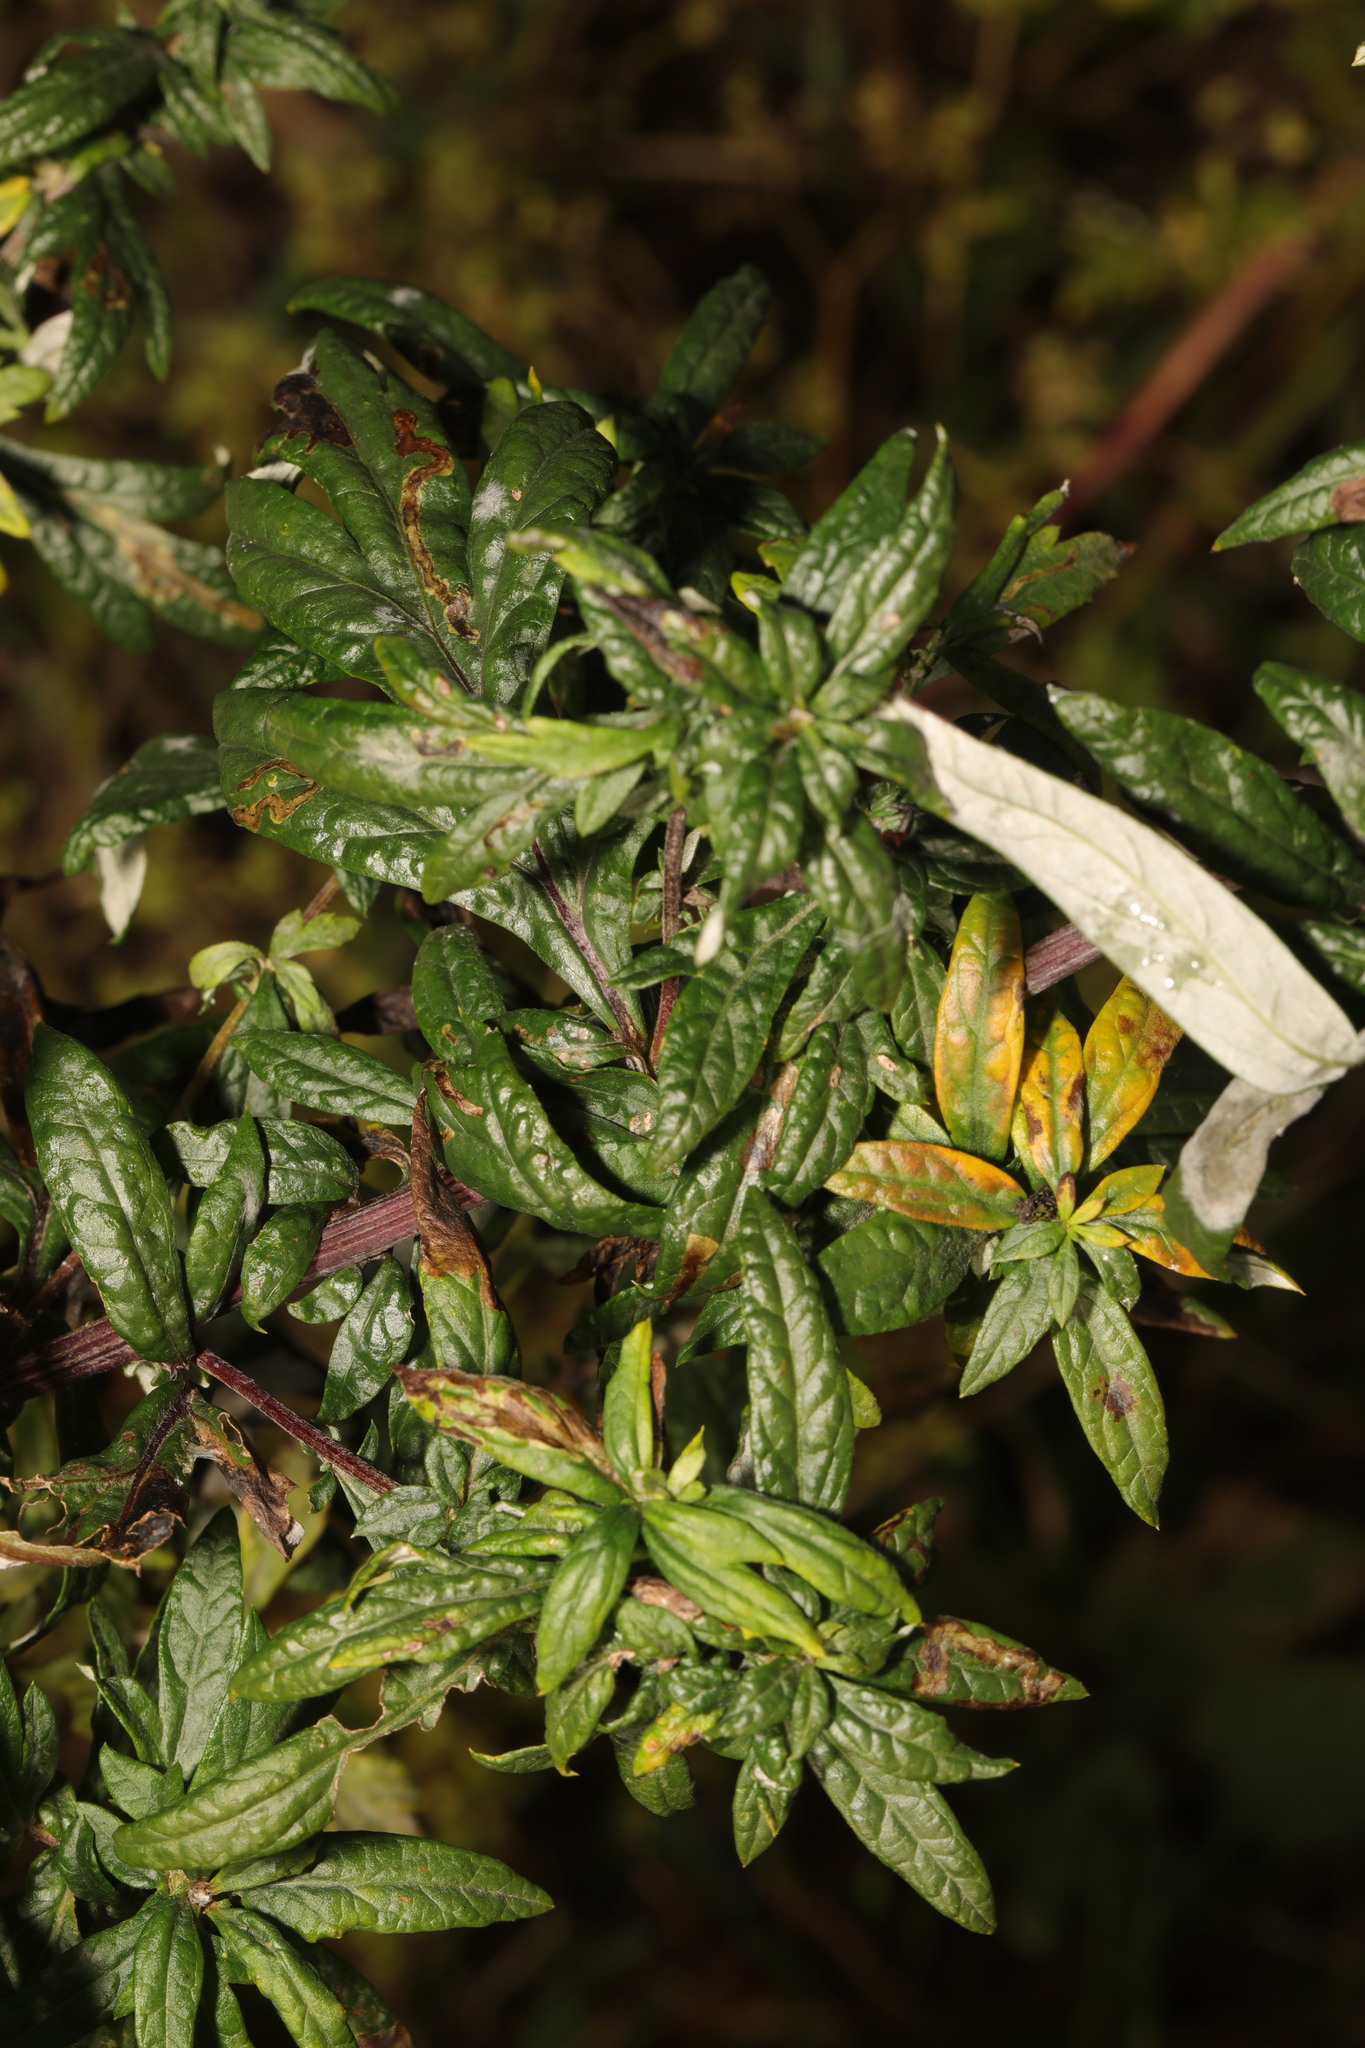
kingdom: Plantae
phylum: Tracheophyta
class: Magnoliopsida
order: Asterales
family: Asteraceae
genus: Artemisia
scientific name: Artemisia vulgaris
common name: Mugwort
